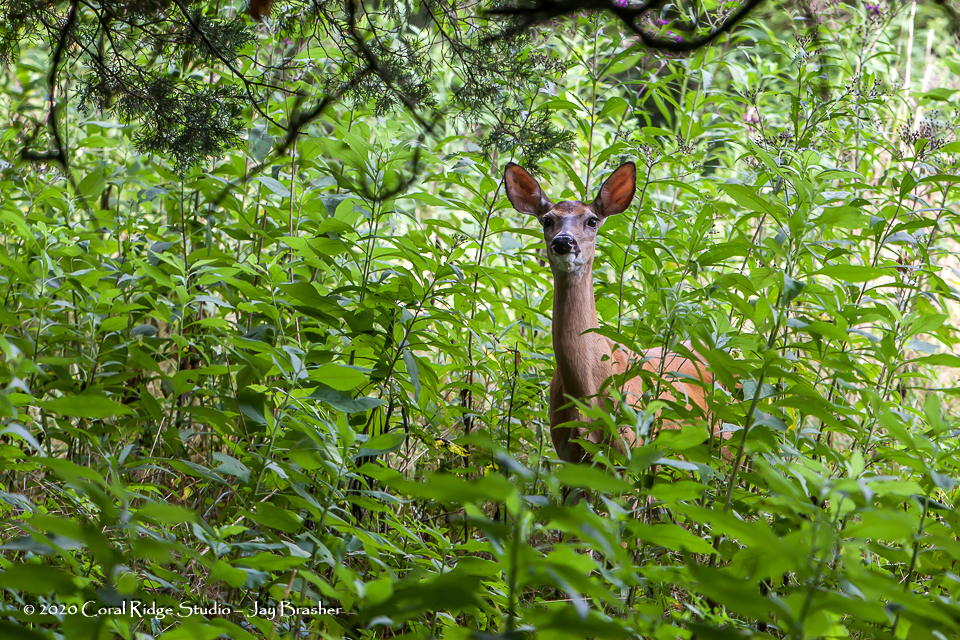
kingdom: Animalia
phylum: Chordata
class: Mammalia
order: Artiodactyla
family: Cervidae
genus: Odocoileus
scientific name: Odocoileus virginianus
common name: White-tailed deer
